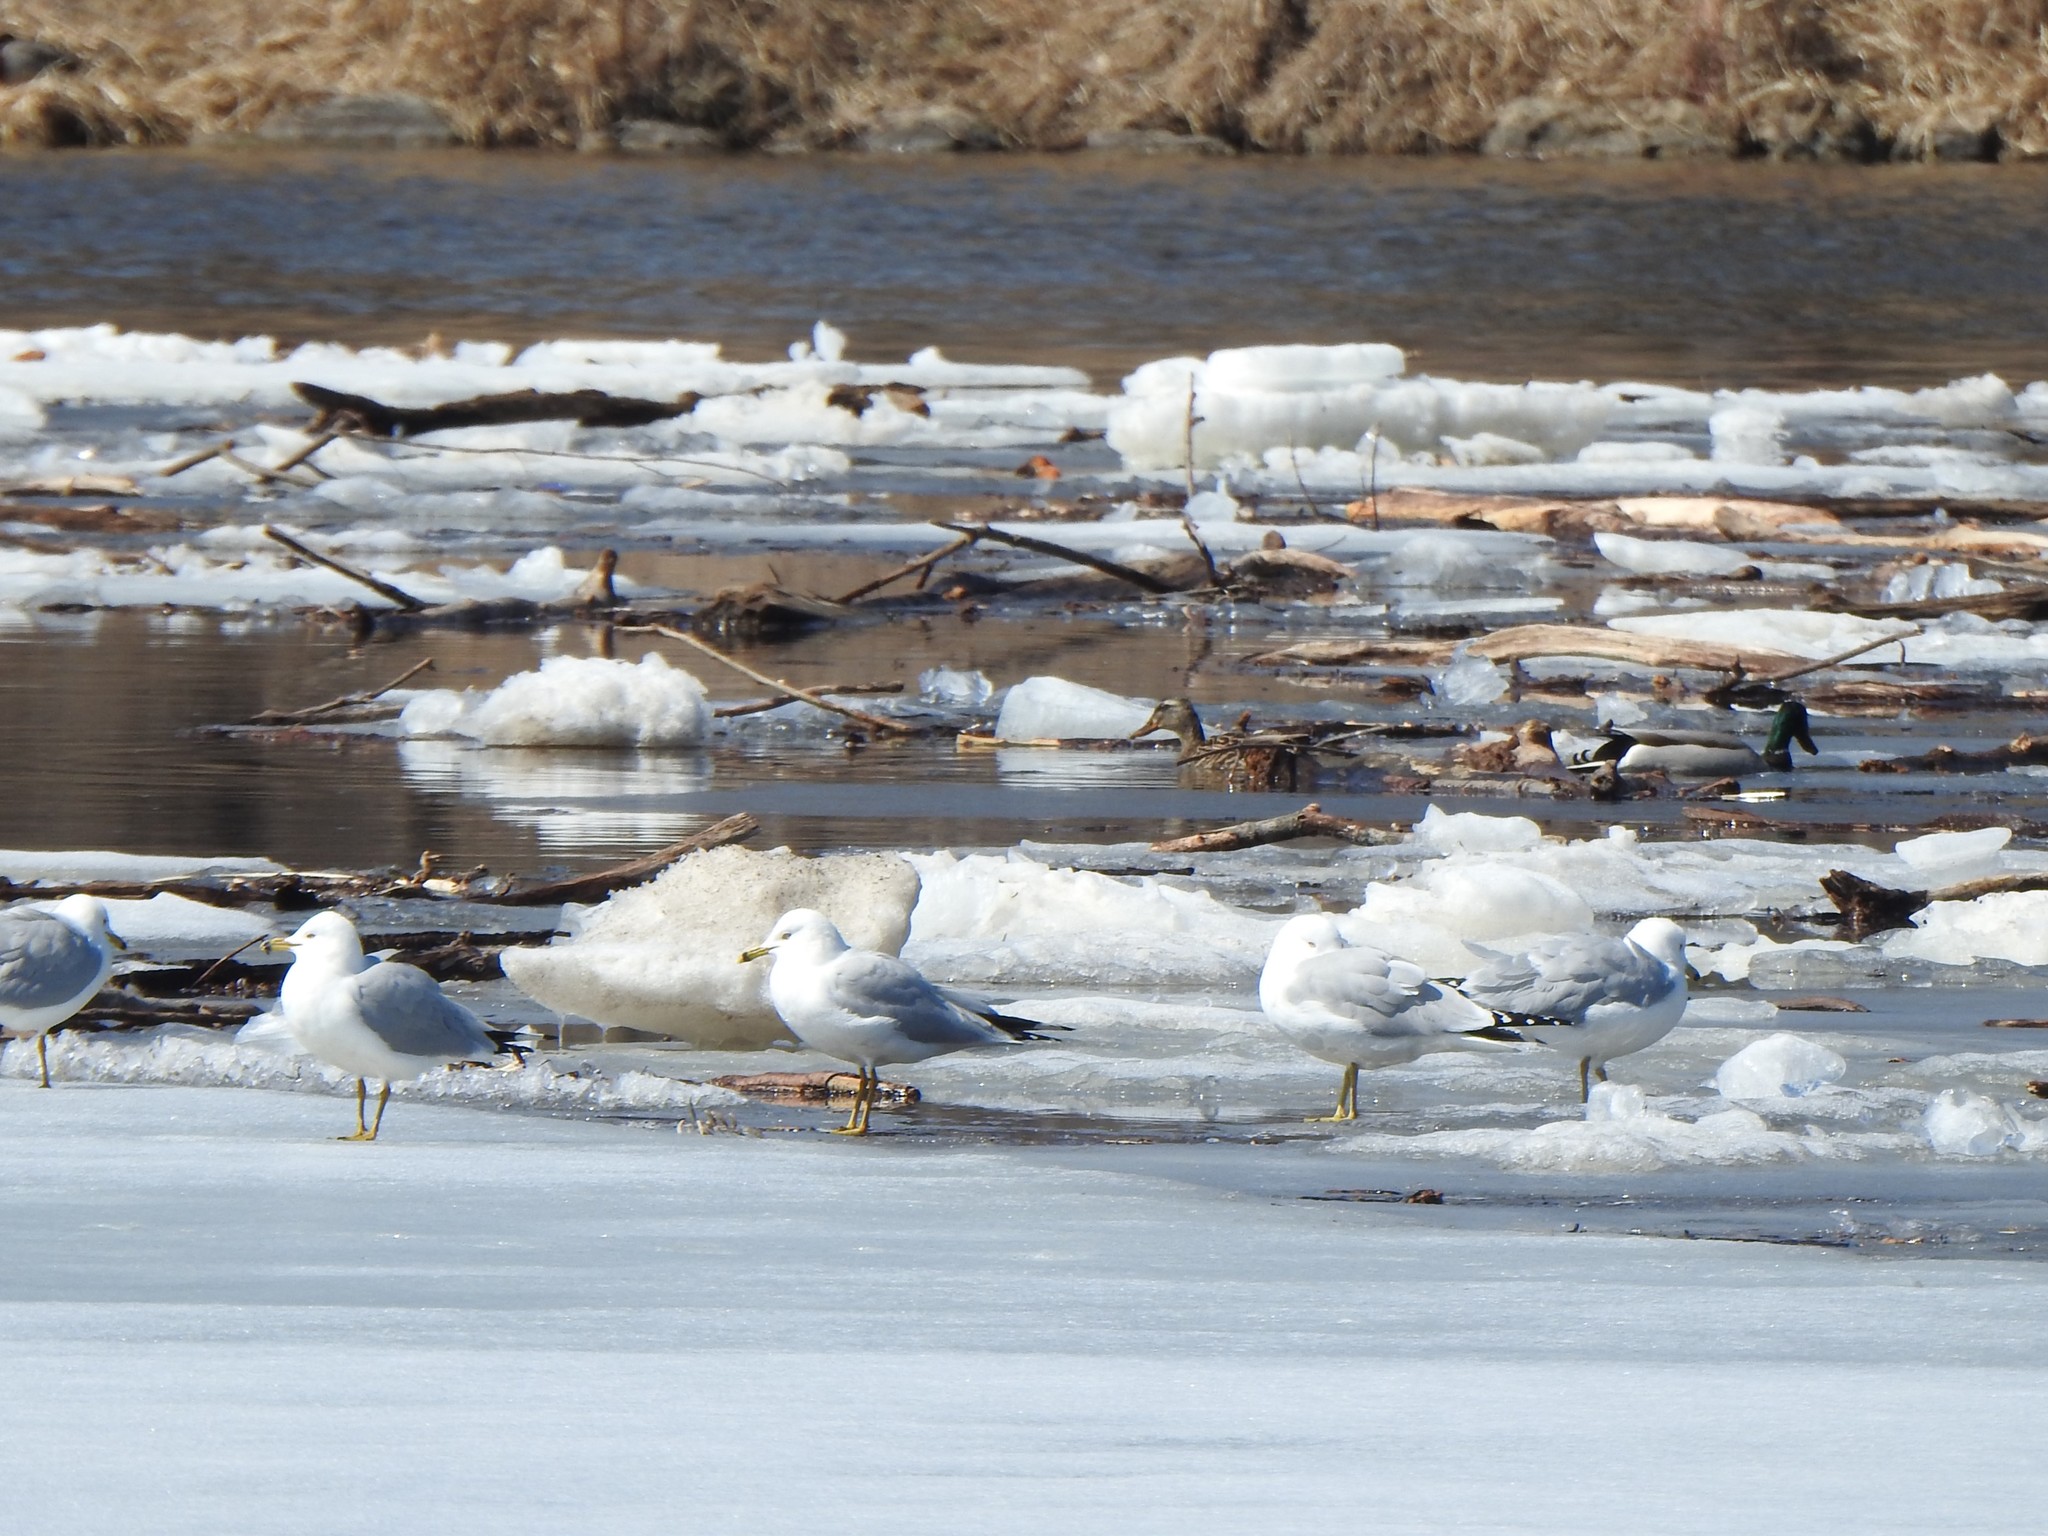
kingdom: Animalia
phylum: Chordata
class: Aves
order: Charadriiformes
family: Laridae
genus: Larus
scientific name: Larus delawarensis
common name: Ring-billed gull
